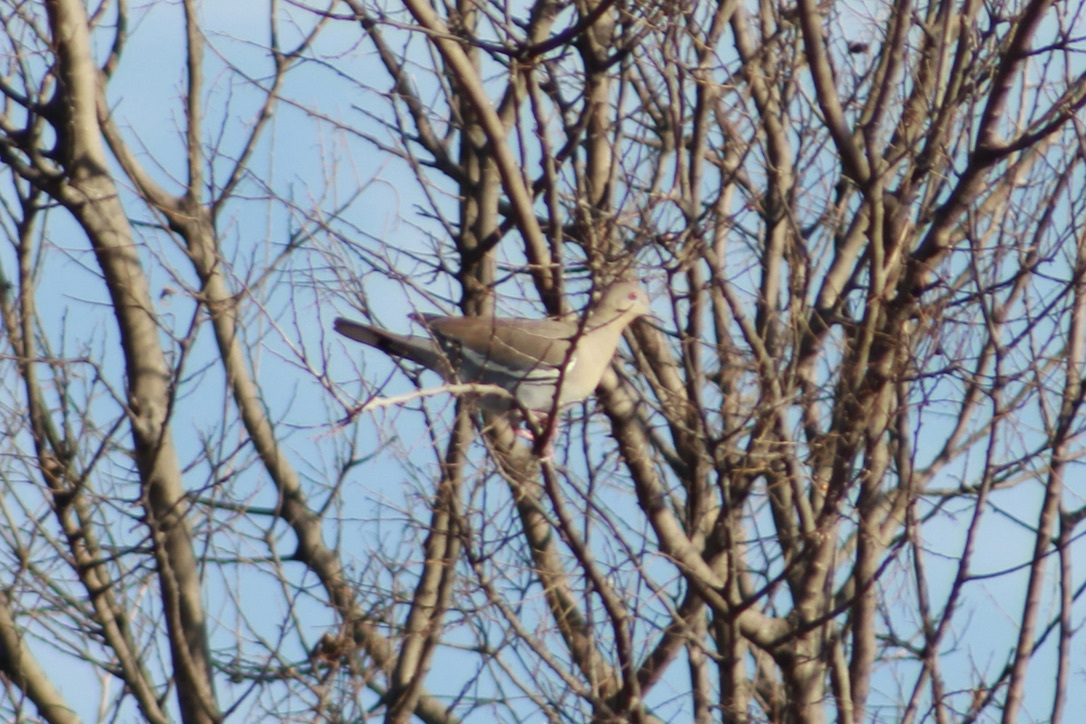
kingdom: Animalia
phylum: Chordata
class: Aves
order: Columbiformes
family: Columbidae
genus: Zenaida
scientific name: Zenaida asiatica
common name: White-winged dove
